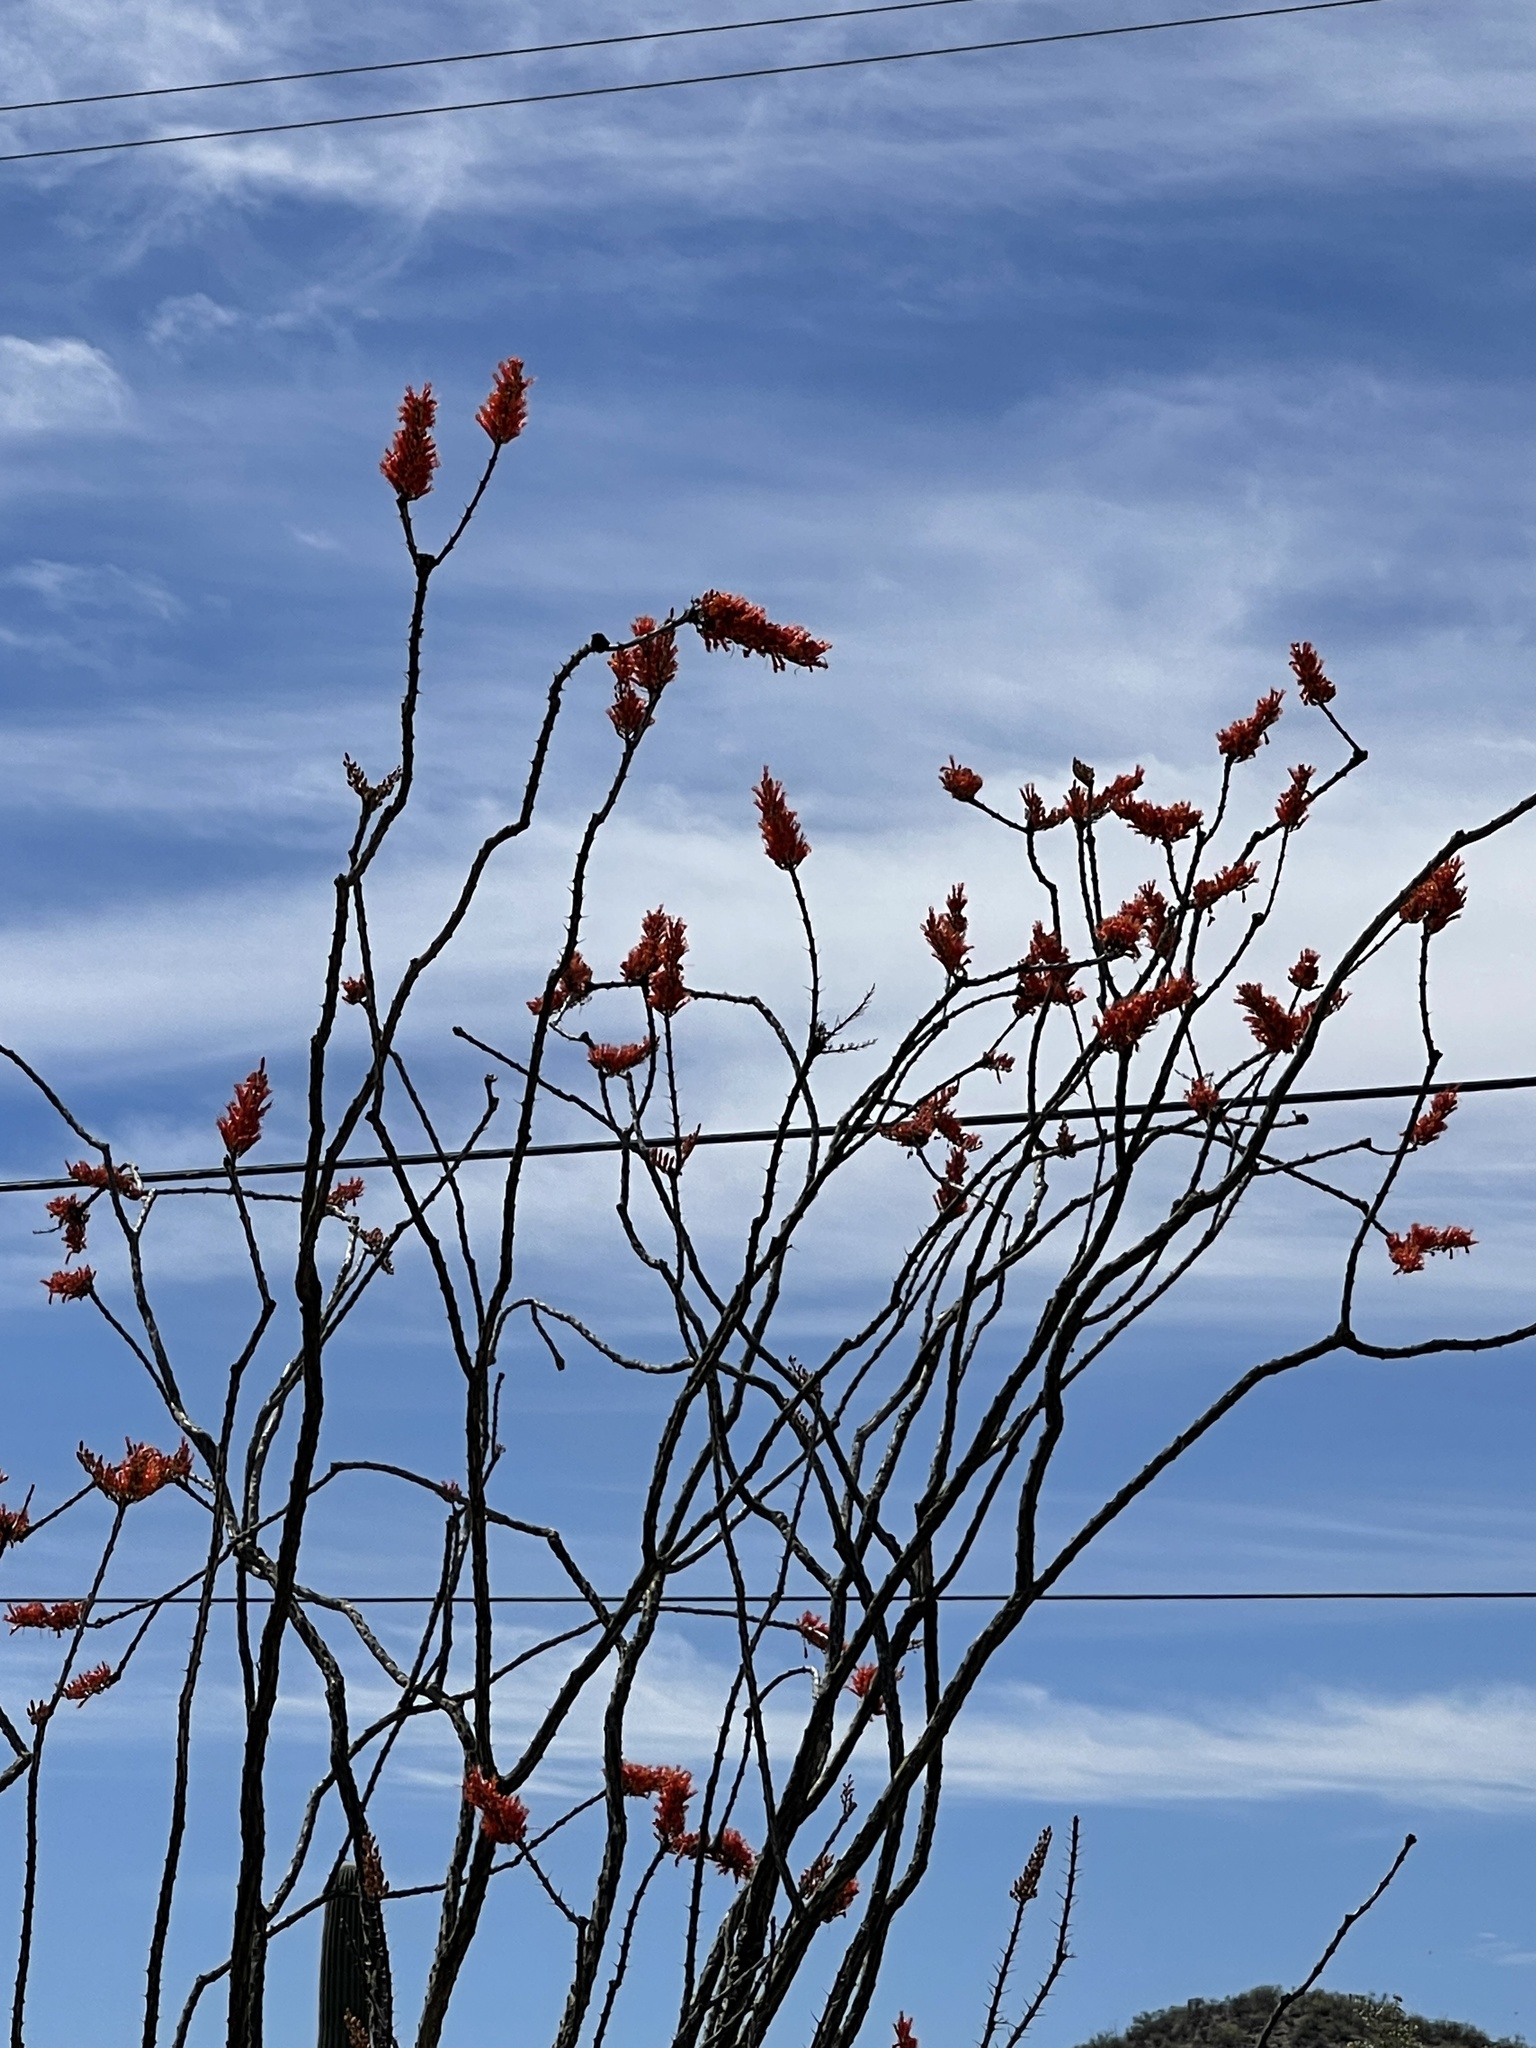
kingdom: Plantae
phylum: Tracheophyta
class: Magnoliopsida
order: Ericales
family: Fouquieriaceae
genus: Fouquieria
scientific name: Fouquieria splendens
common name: Vine-cactus
